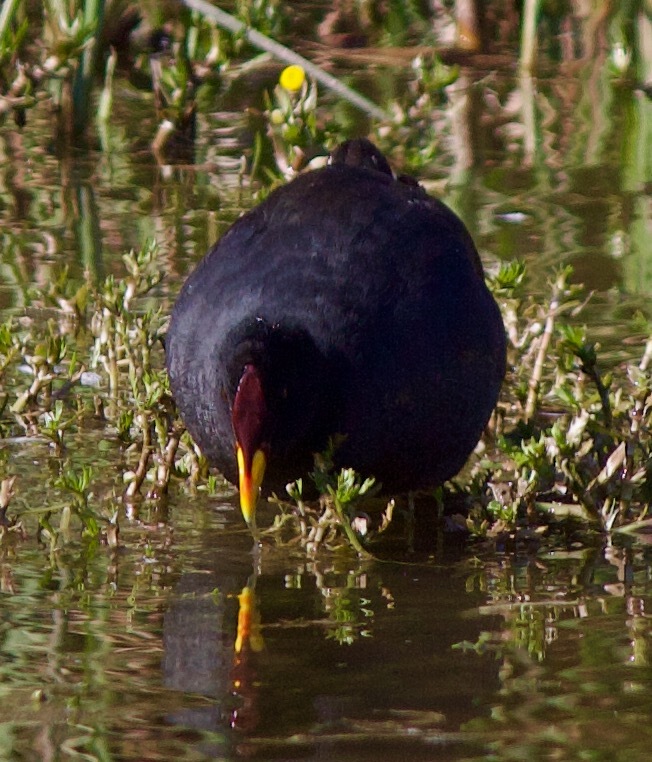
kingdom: Animalia
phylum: Chordata
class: Aves
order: Gruiformes
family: Rallidae
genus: Fulica
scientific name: Fulica rufifrons
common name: Red-fronted coot
